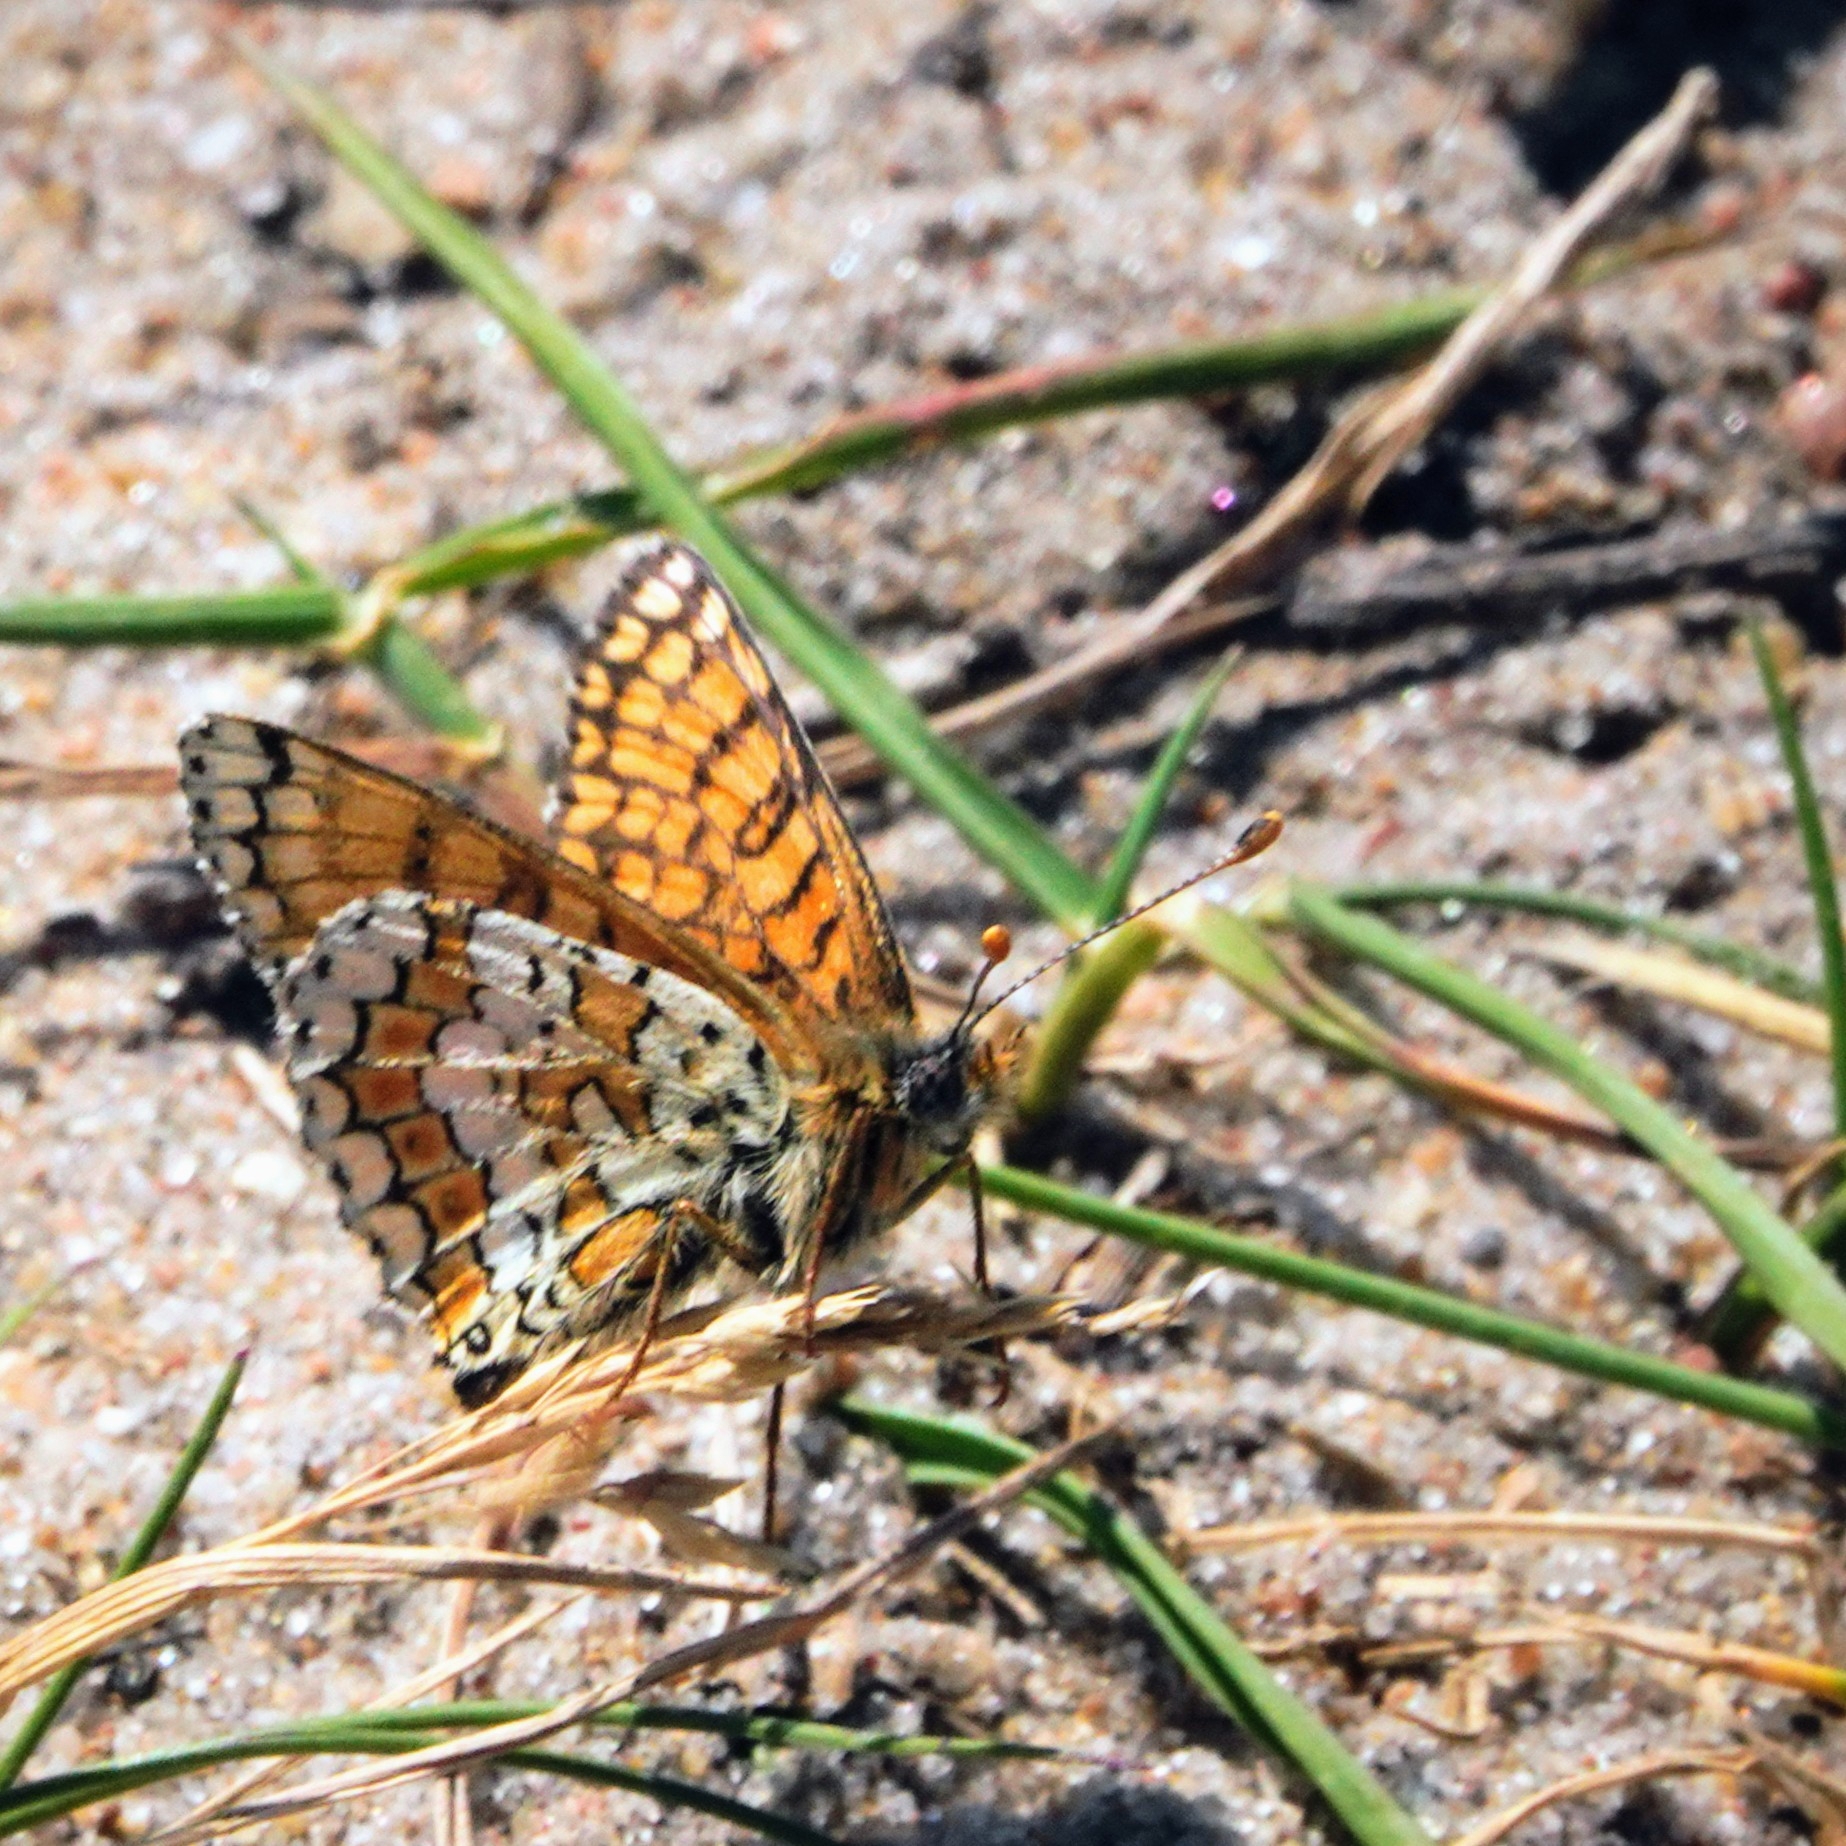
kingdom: Animalia
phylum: Arthropoda
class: Insecta
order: Lepidoptera
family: Nymphalidae
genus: Melitaea
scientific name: Melitaea cinxia
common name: Glanville fritillary
